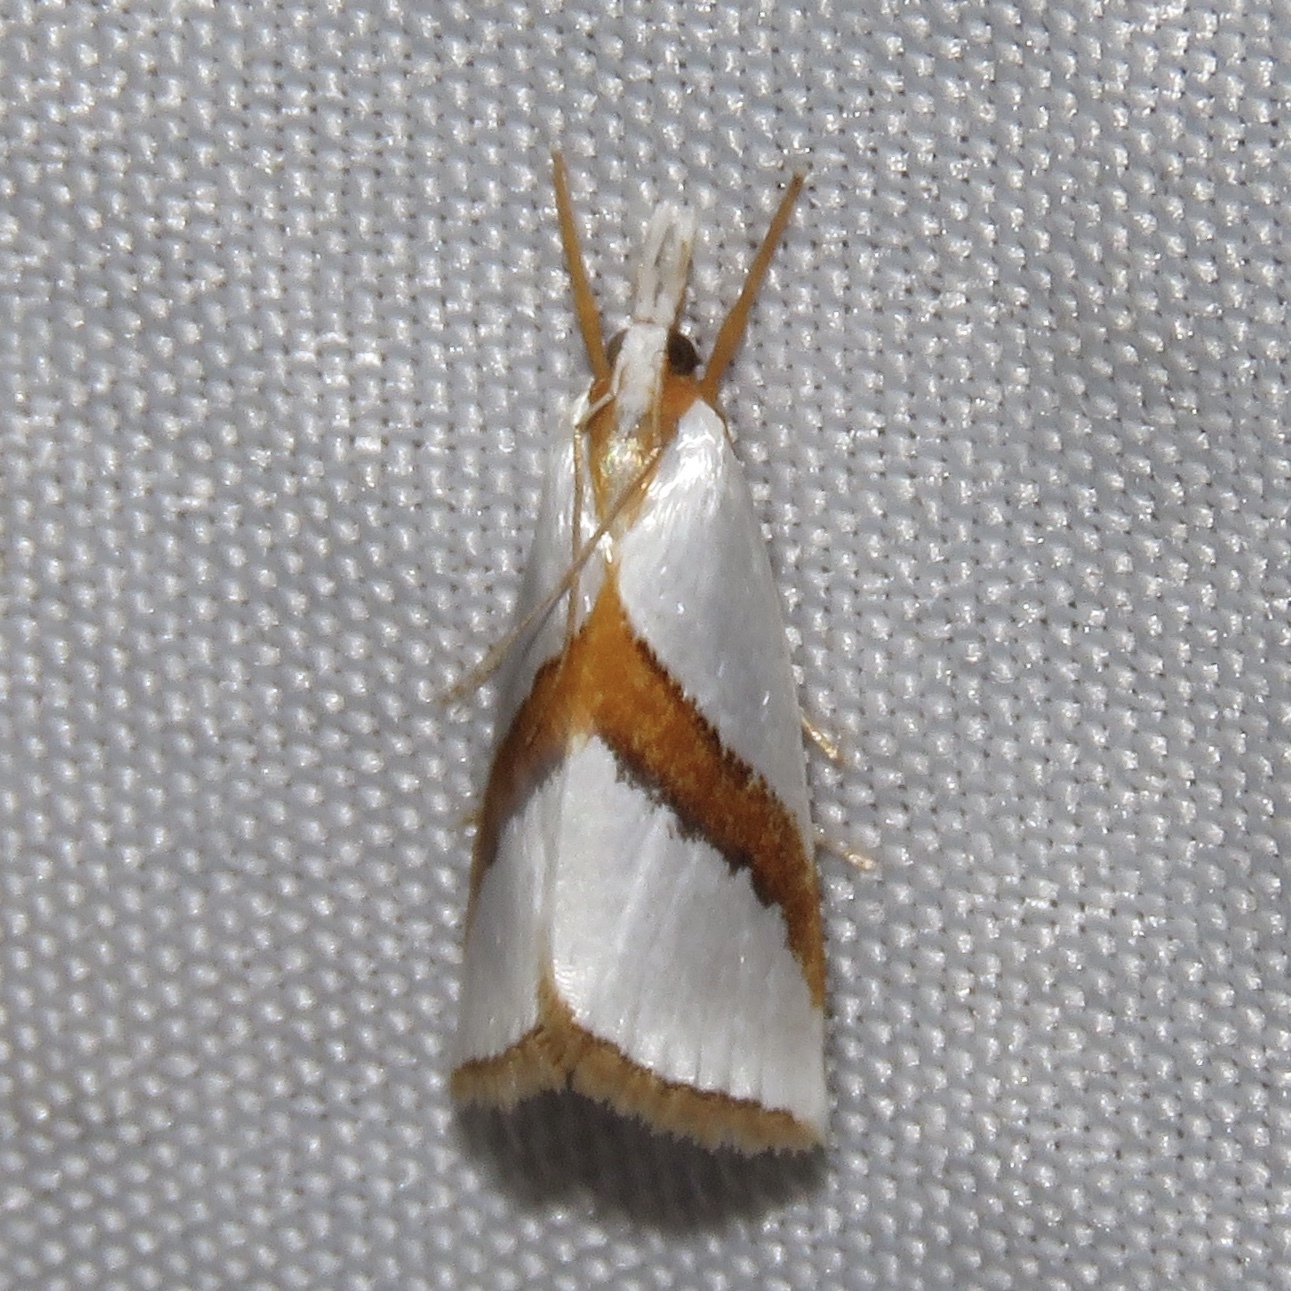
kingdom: Animalia
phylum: Arthropoda
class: Insecta
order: Lepidoptera
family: Crambidae
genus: Vaxi
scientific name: Vaxi critica
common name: Straight-lined vaxi moth
